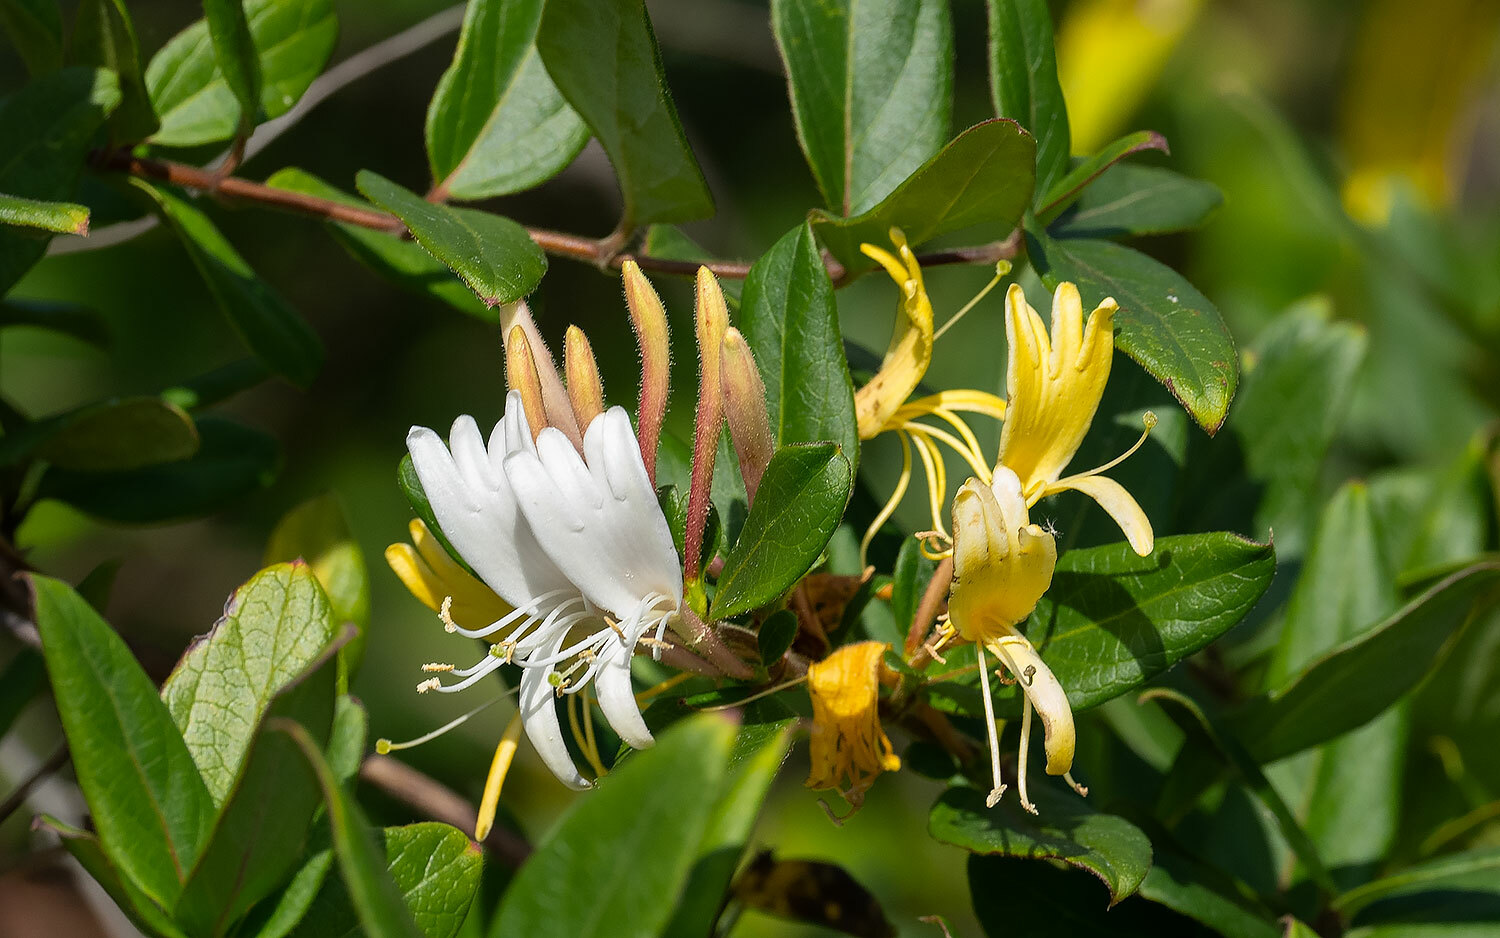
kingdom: Plantae
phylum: Tracheophyta
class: Magnoliopsida
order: Dipsacales
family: Caprifoliaceae
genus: Lonicera
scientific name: Lonicera japonica
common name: Japanese honeysuckle
